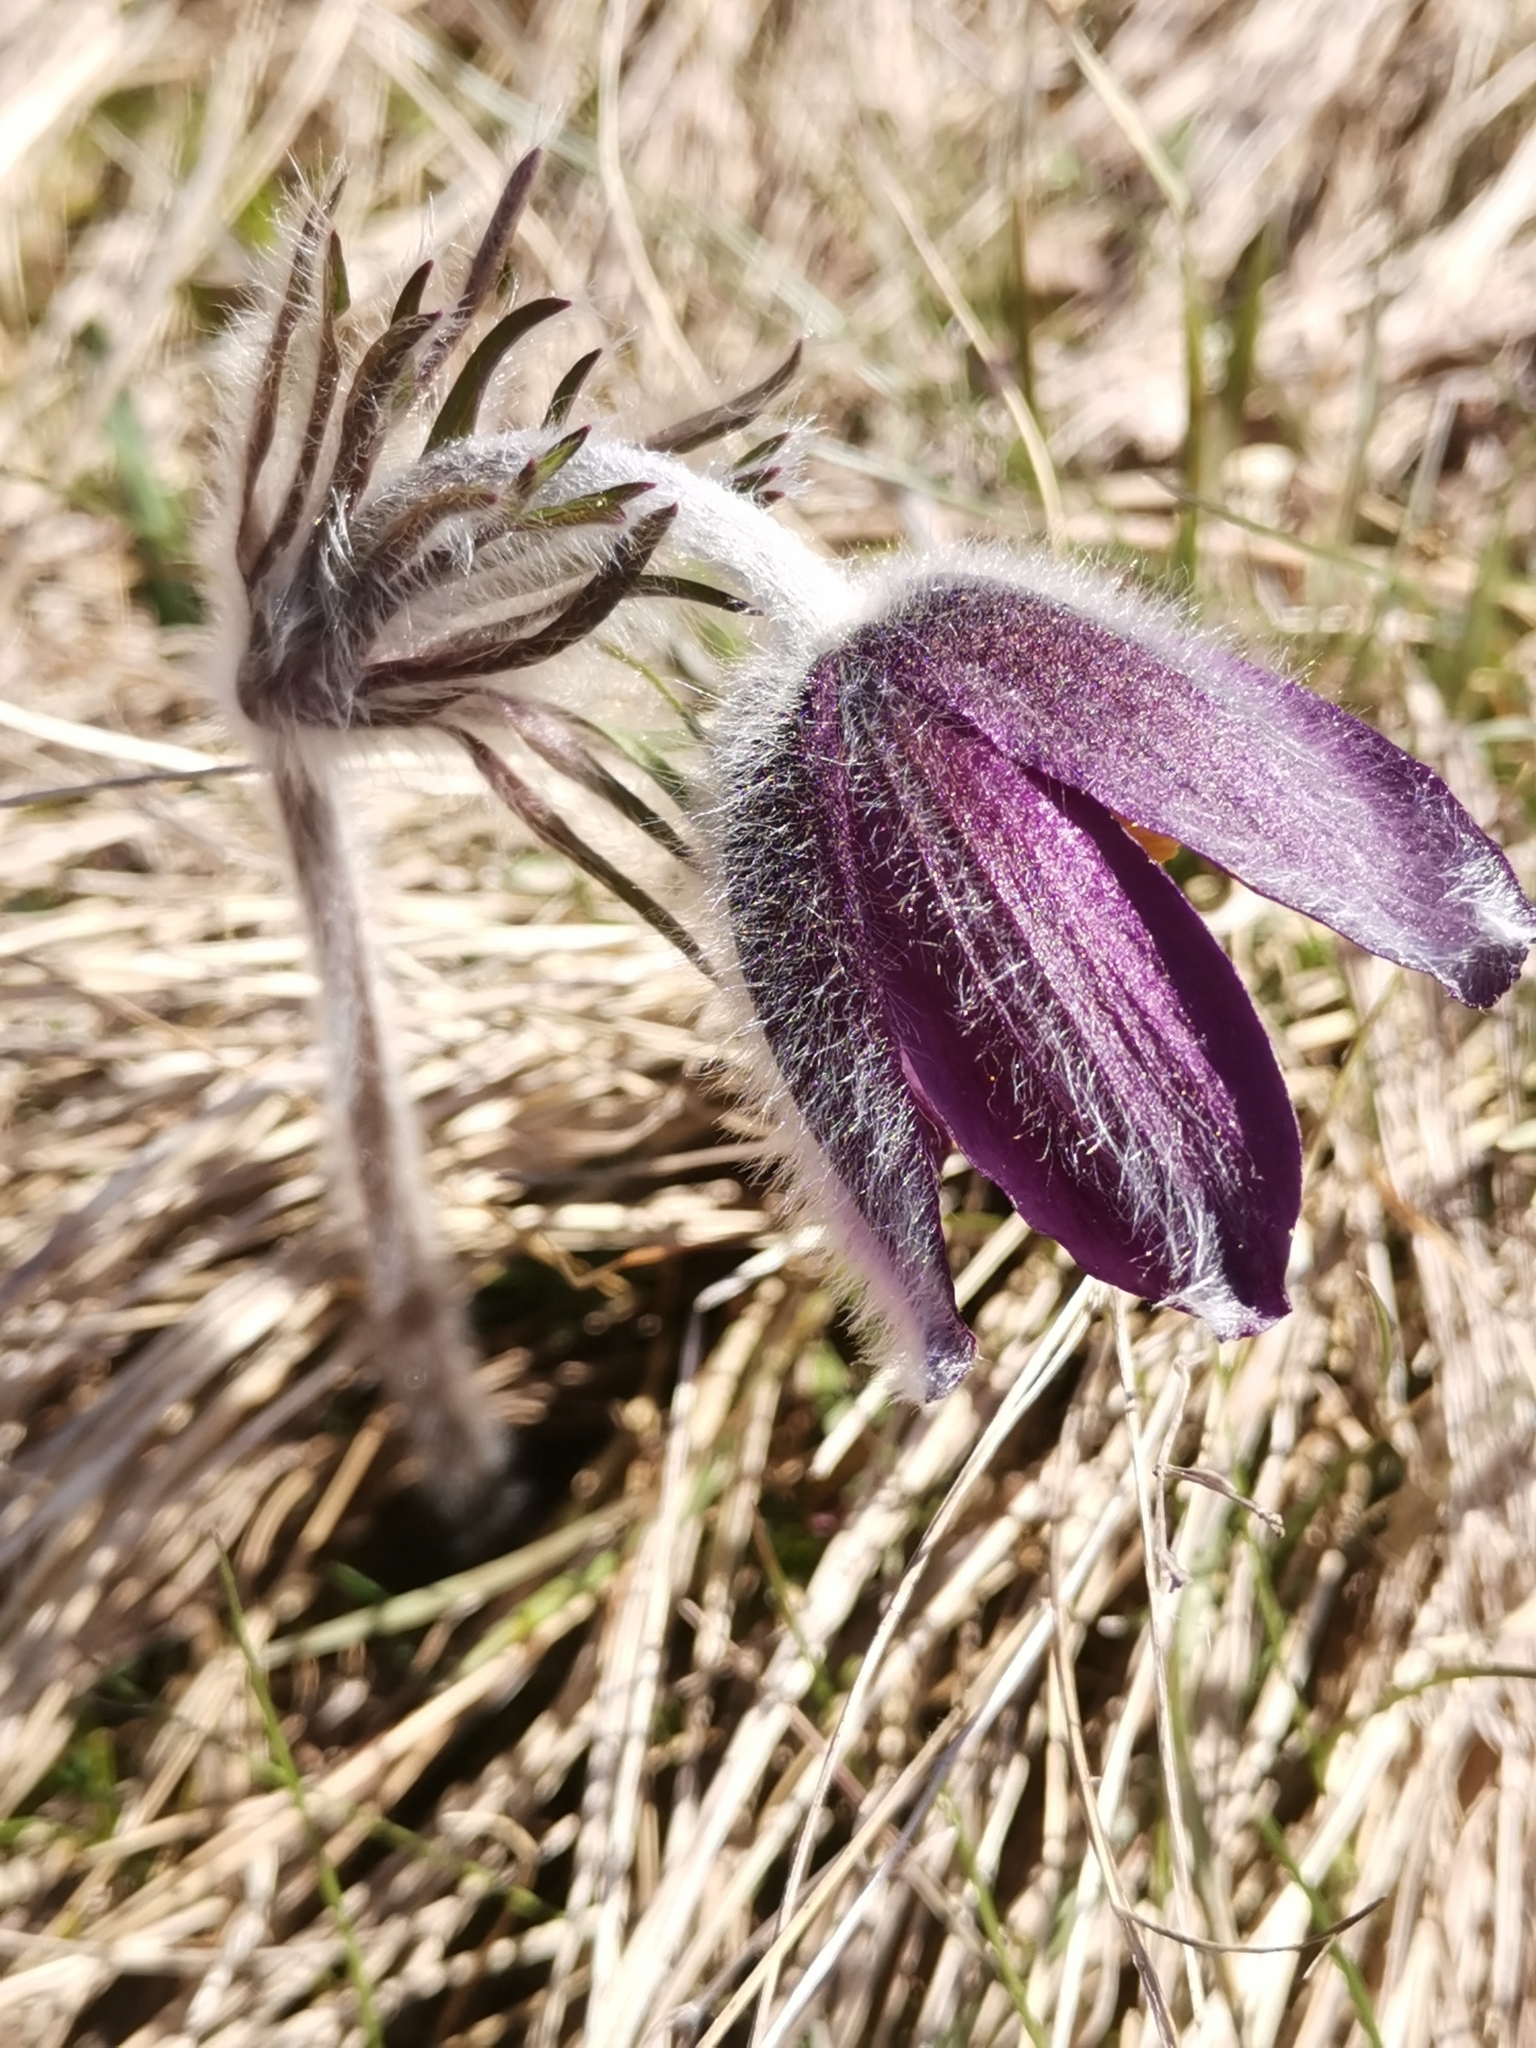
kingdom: Plantae
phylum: Tracheophyta
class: Magnoliopsida
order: Ranunculales
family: Ranunculaceae
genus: Pulsatilla
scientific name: Pulsatilla montana
